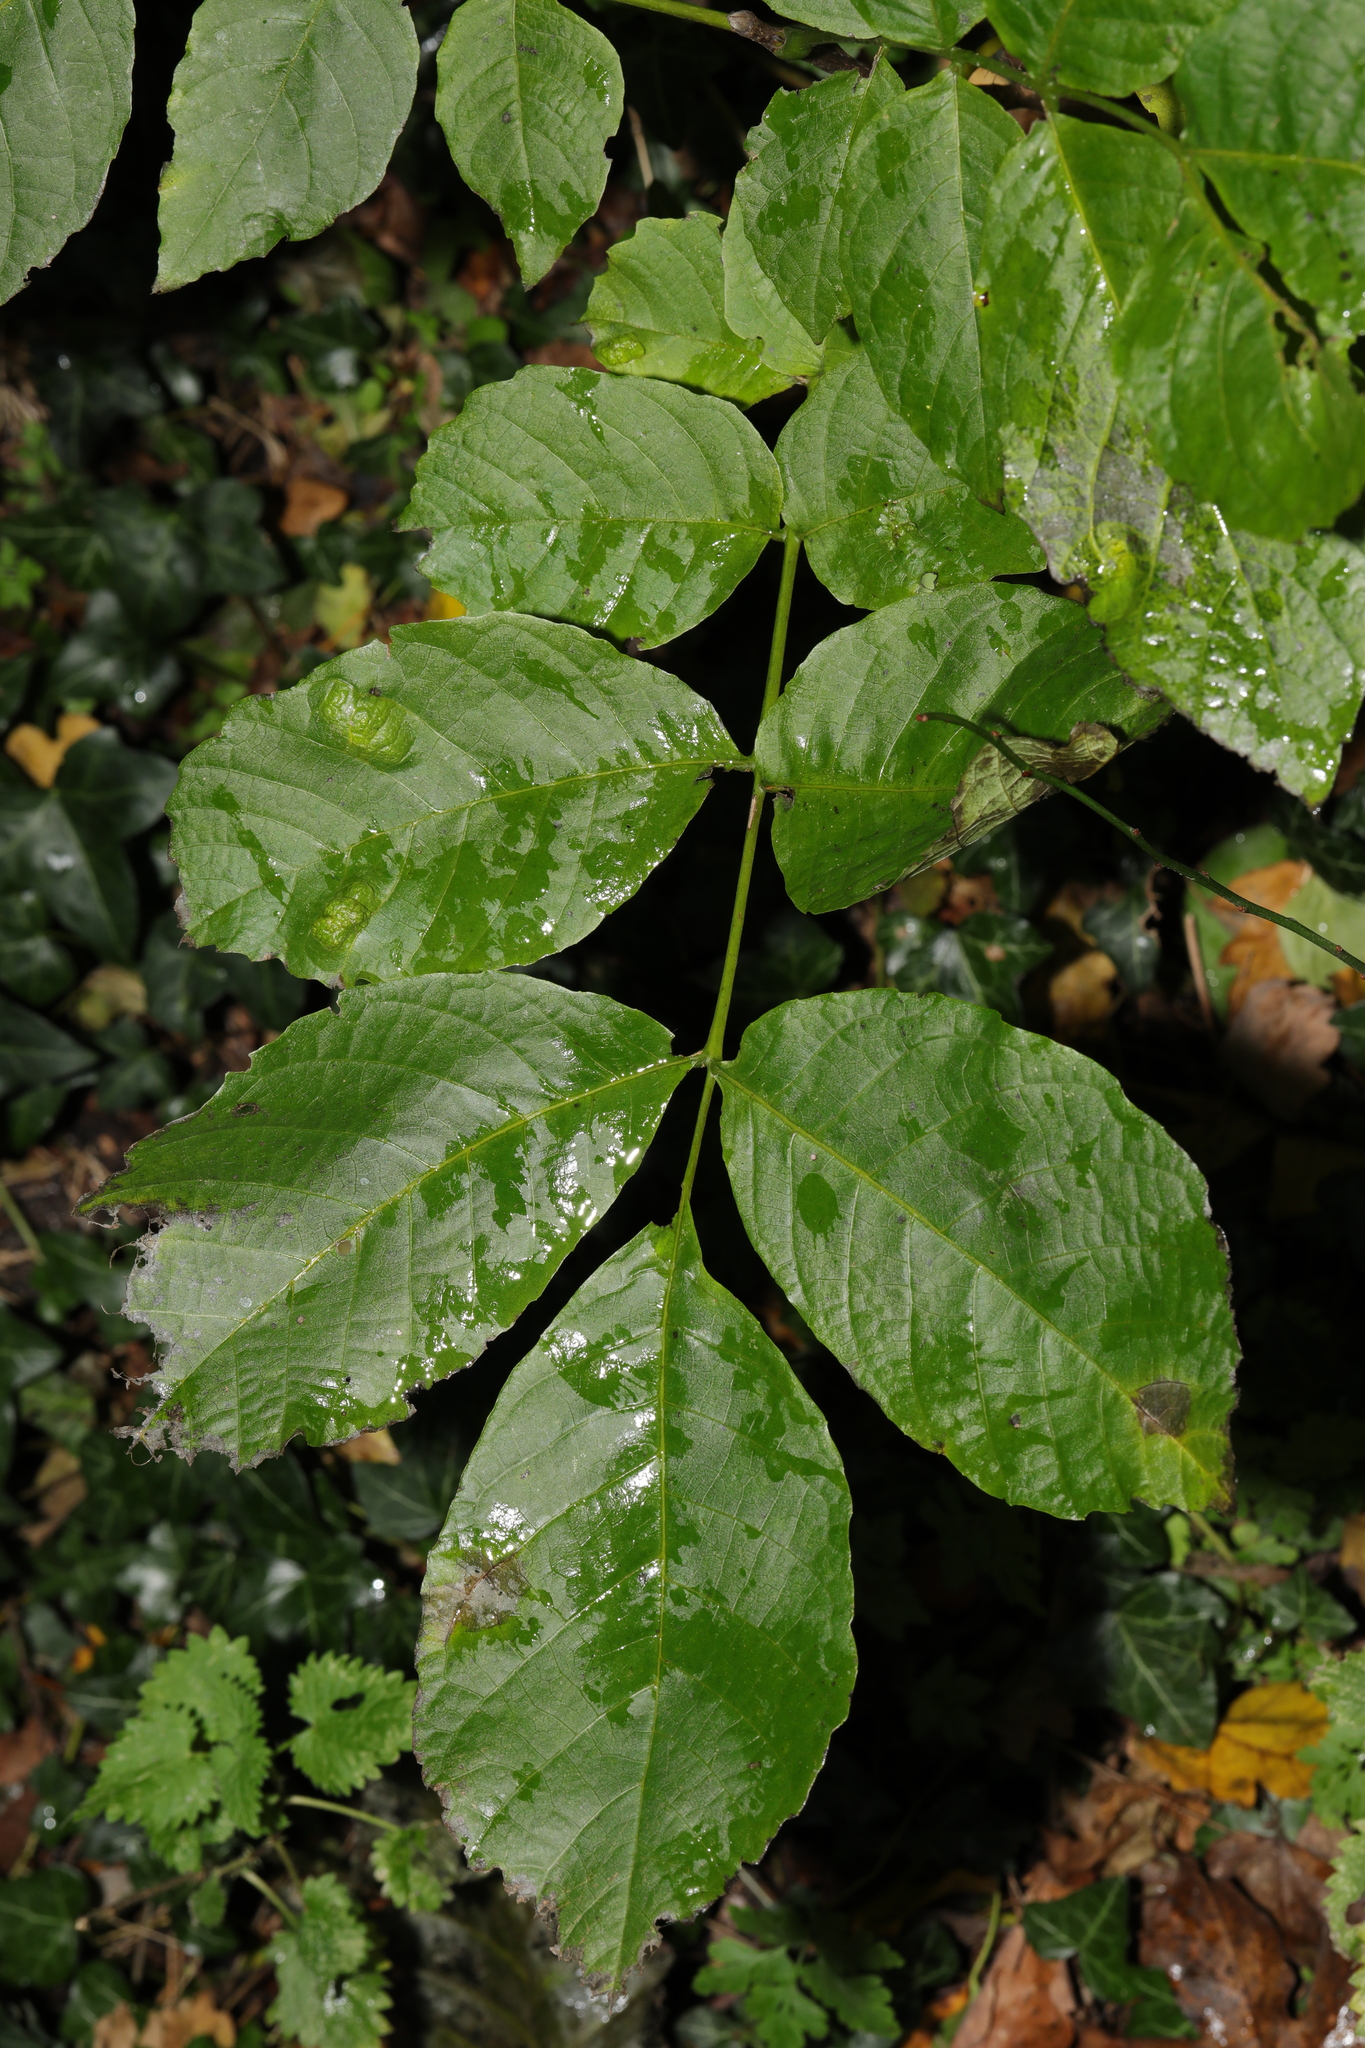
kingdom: Plantae
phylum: Tracheophyta
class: Magnoliopsida
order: Fagales
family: Juglandaceae
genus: Juglans
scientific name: Juglans regia
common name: Walnut
